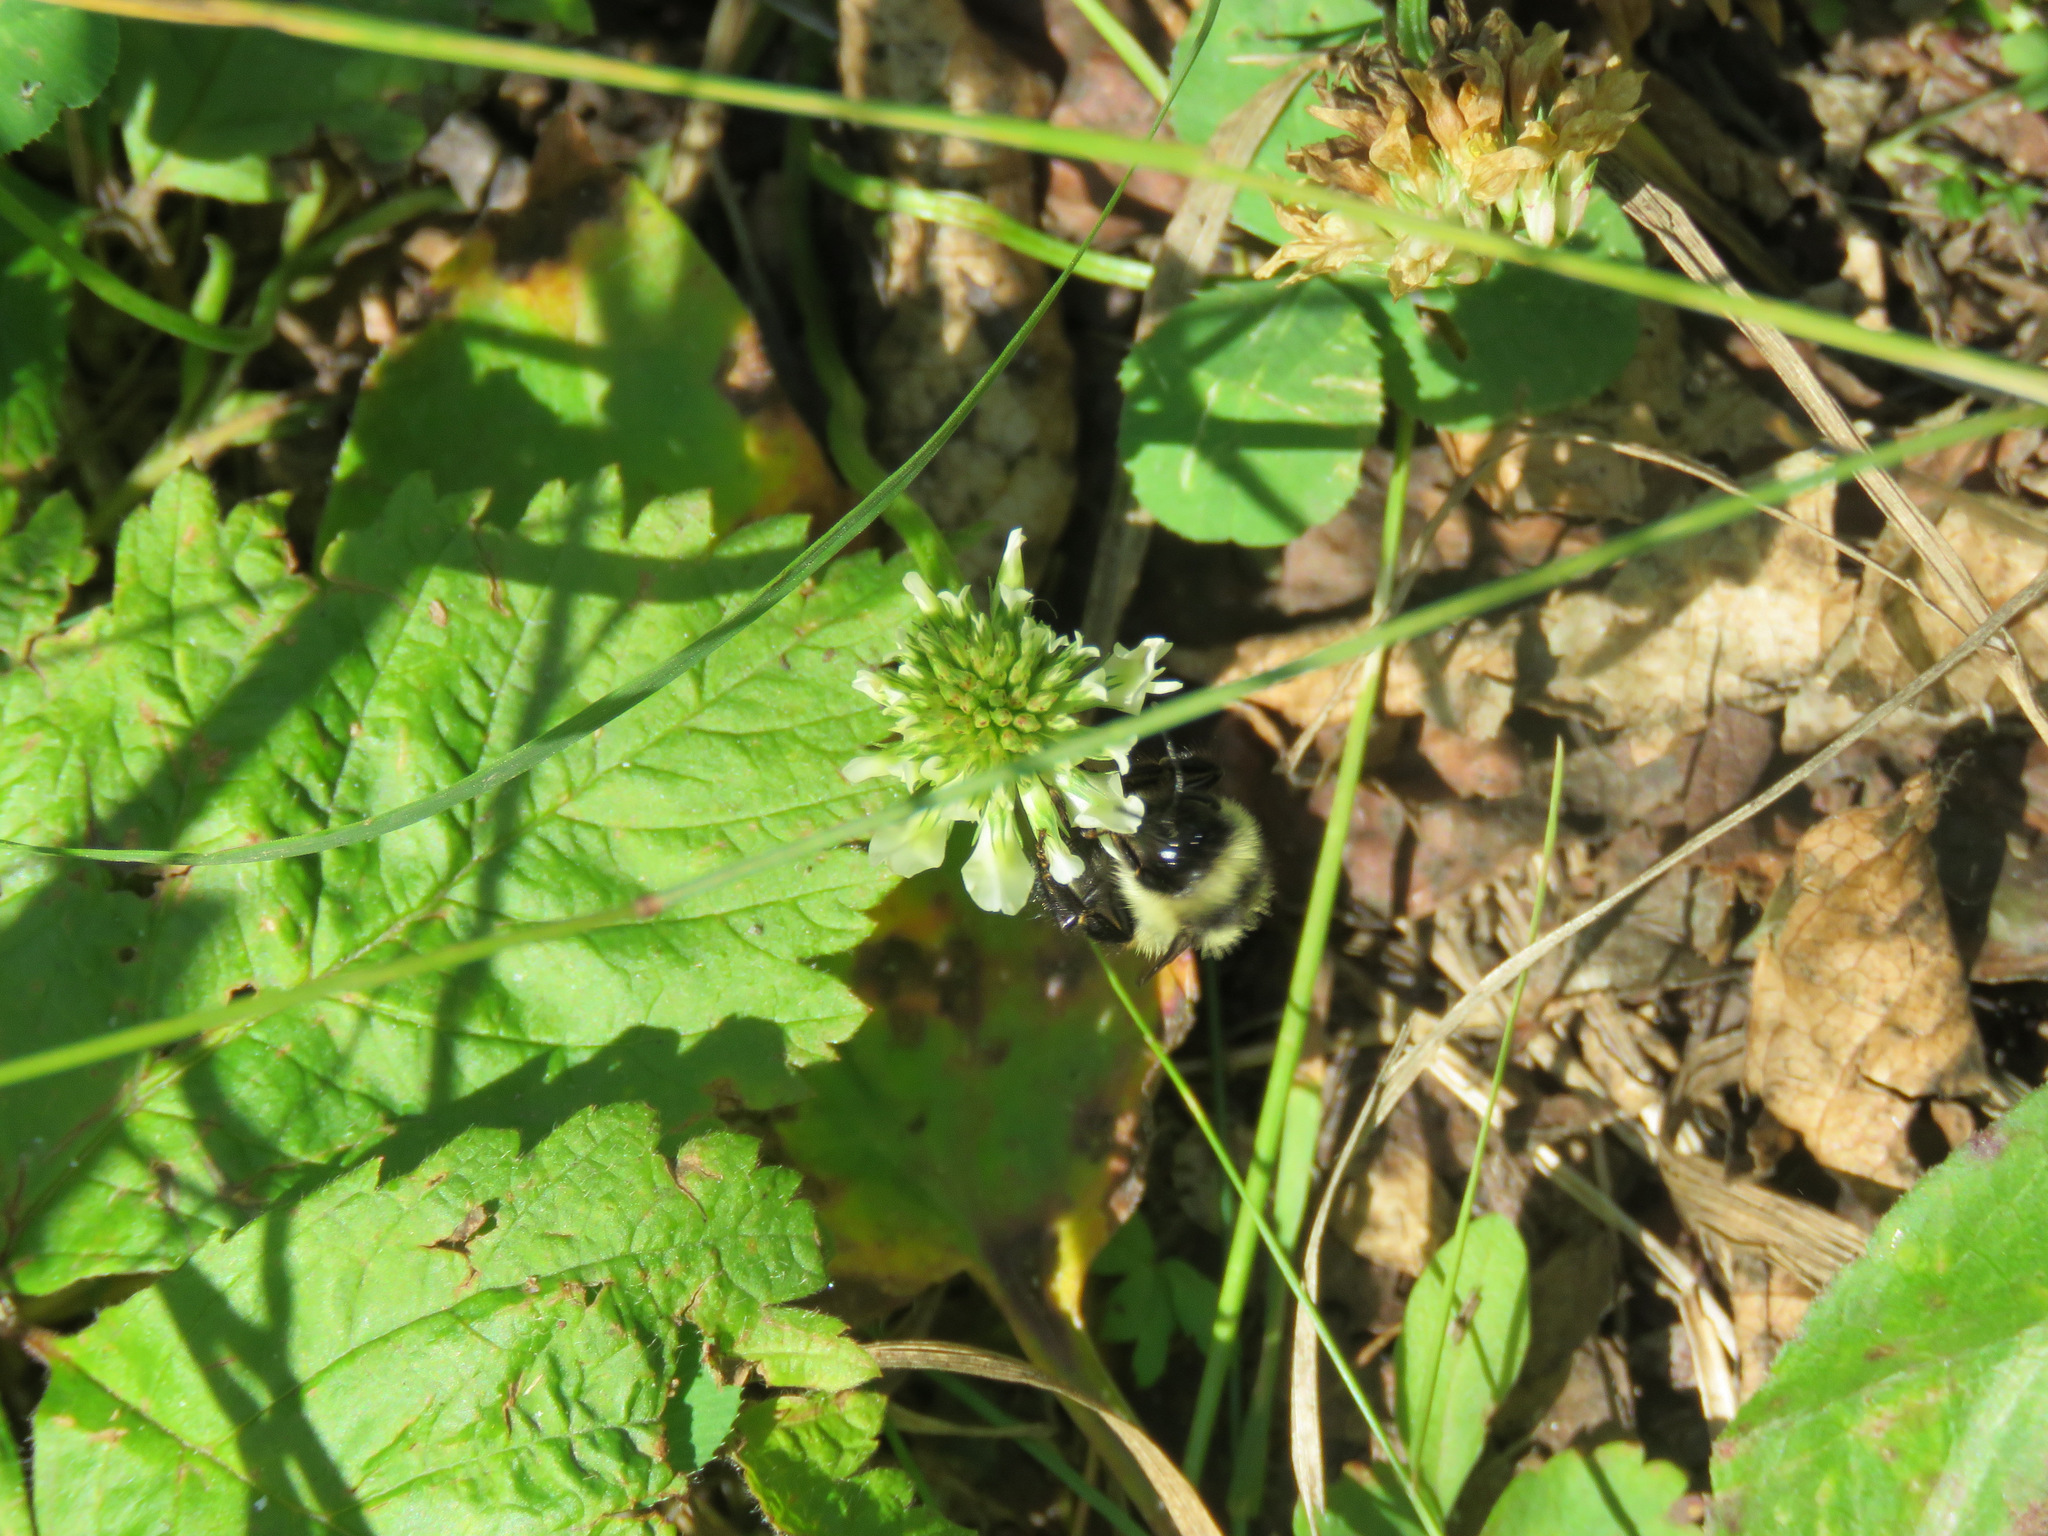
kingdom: Animalia
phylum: Arthropoda
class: Insecta
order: Hymenoptera
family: Apidae
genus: Bombus
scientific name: Bombus ternarius
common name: Tri-colored bumble bee
